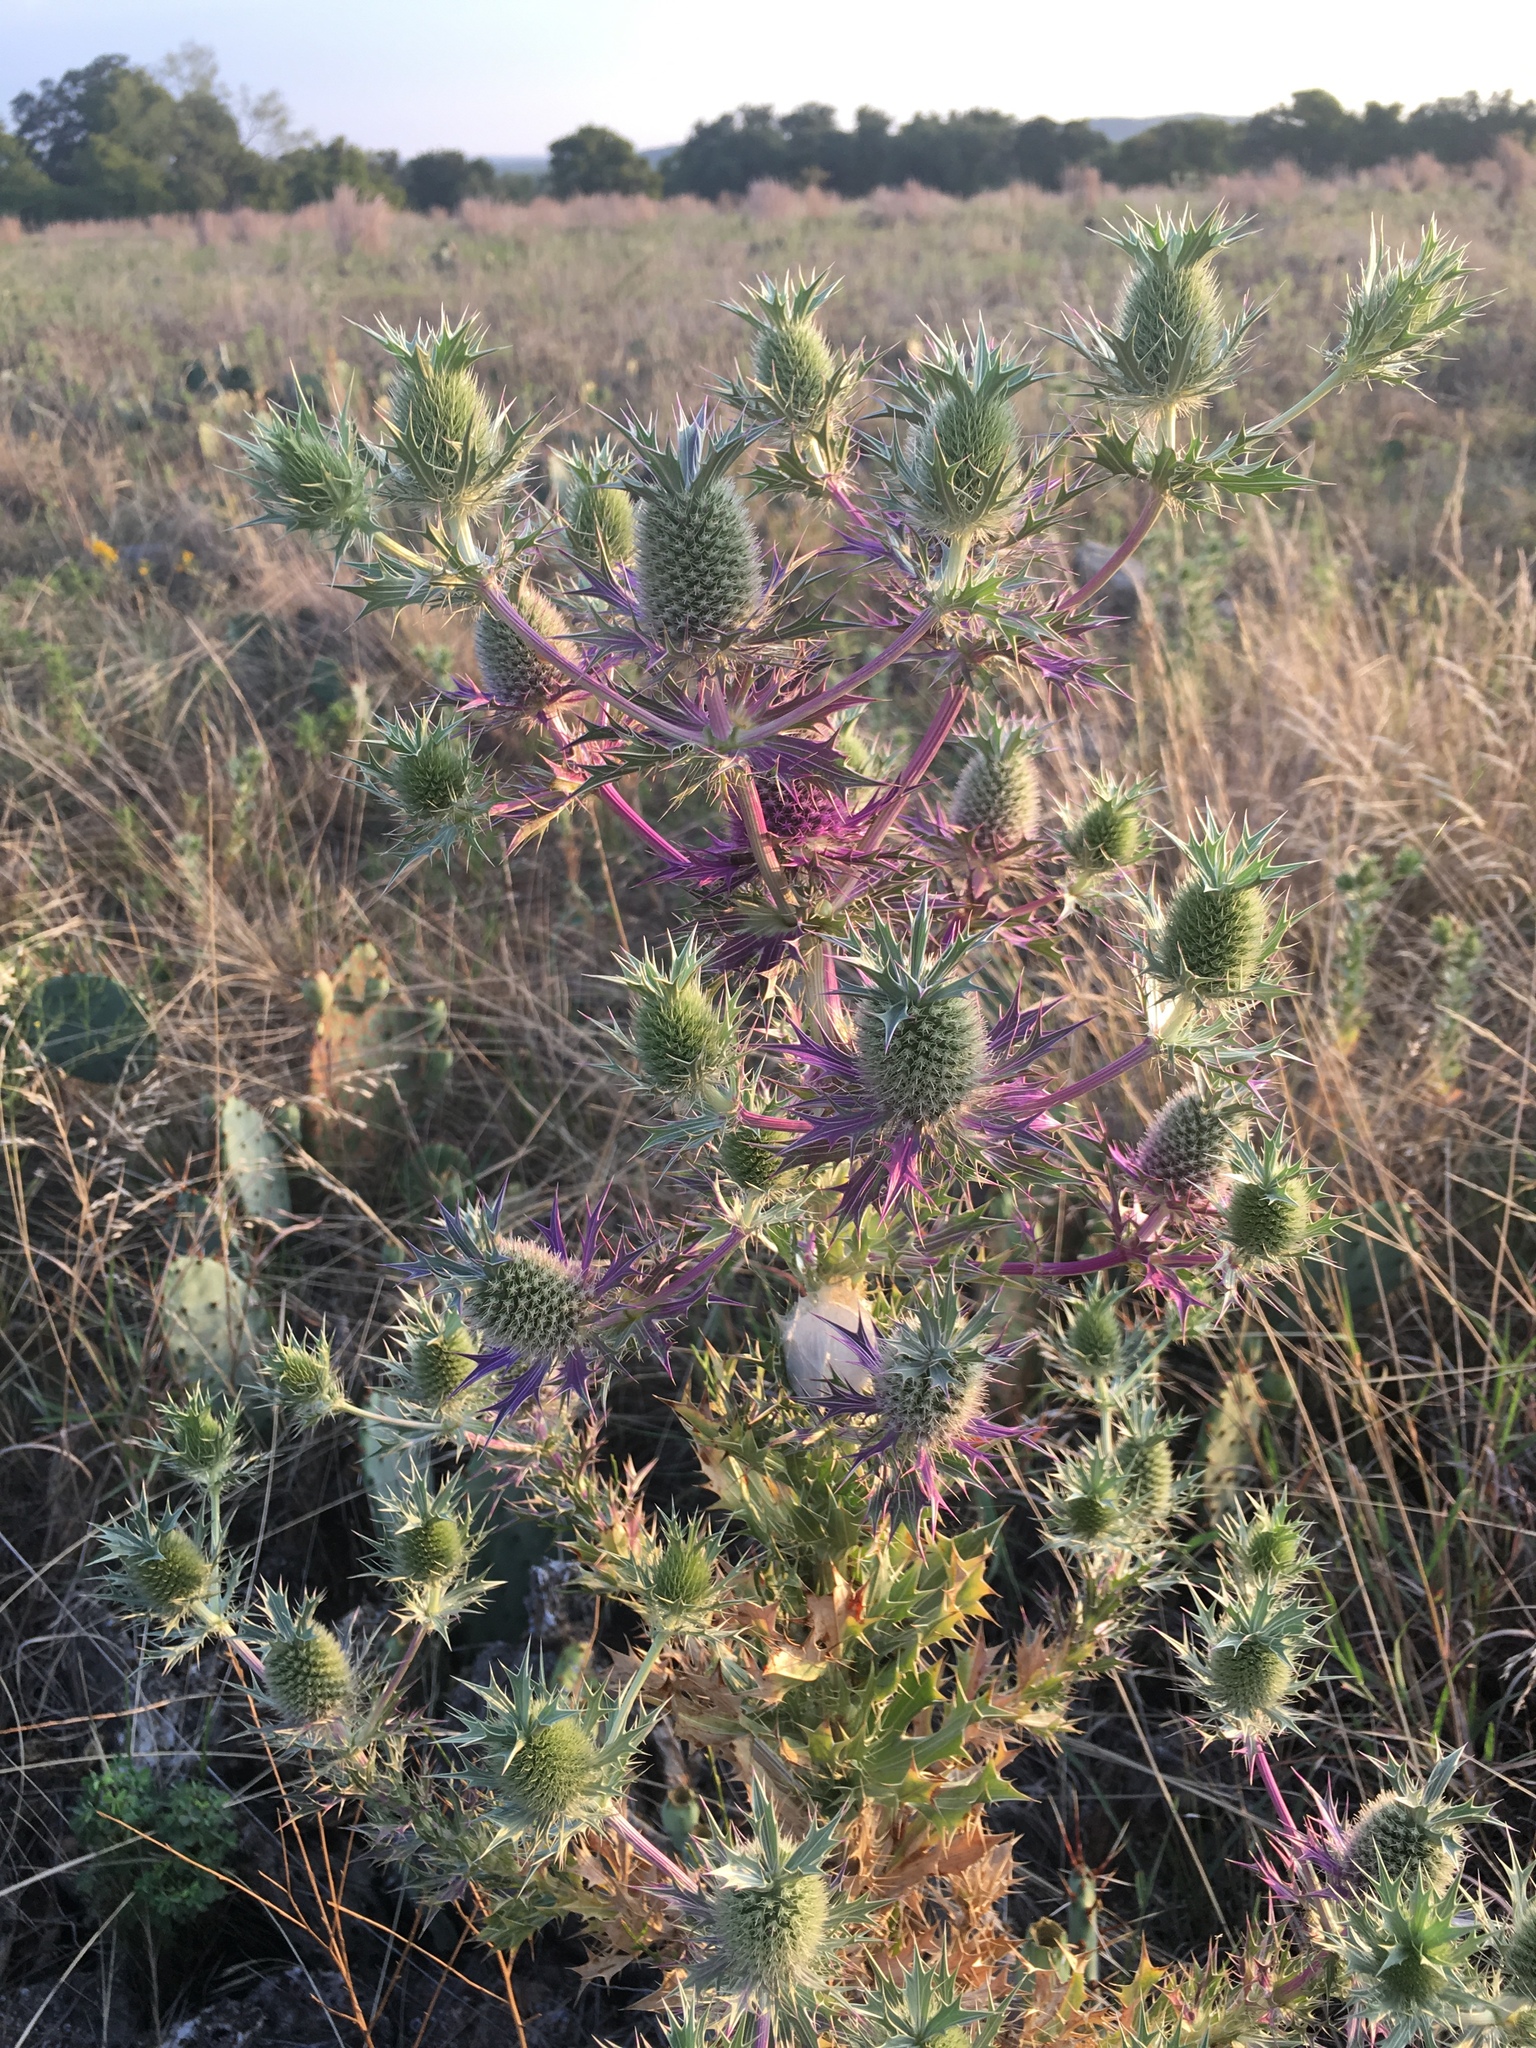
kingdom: Plantae
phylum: Tracheophyta
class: Magnoliopsida
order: Apiales
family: Apiaceae
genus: Eryngium
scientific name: Eryngium leavenworthii
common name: Leavenworth's eryngo
